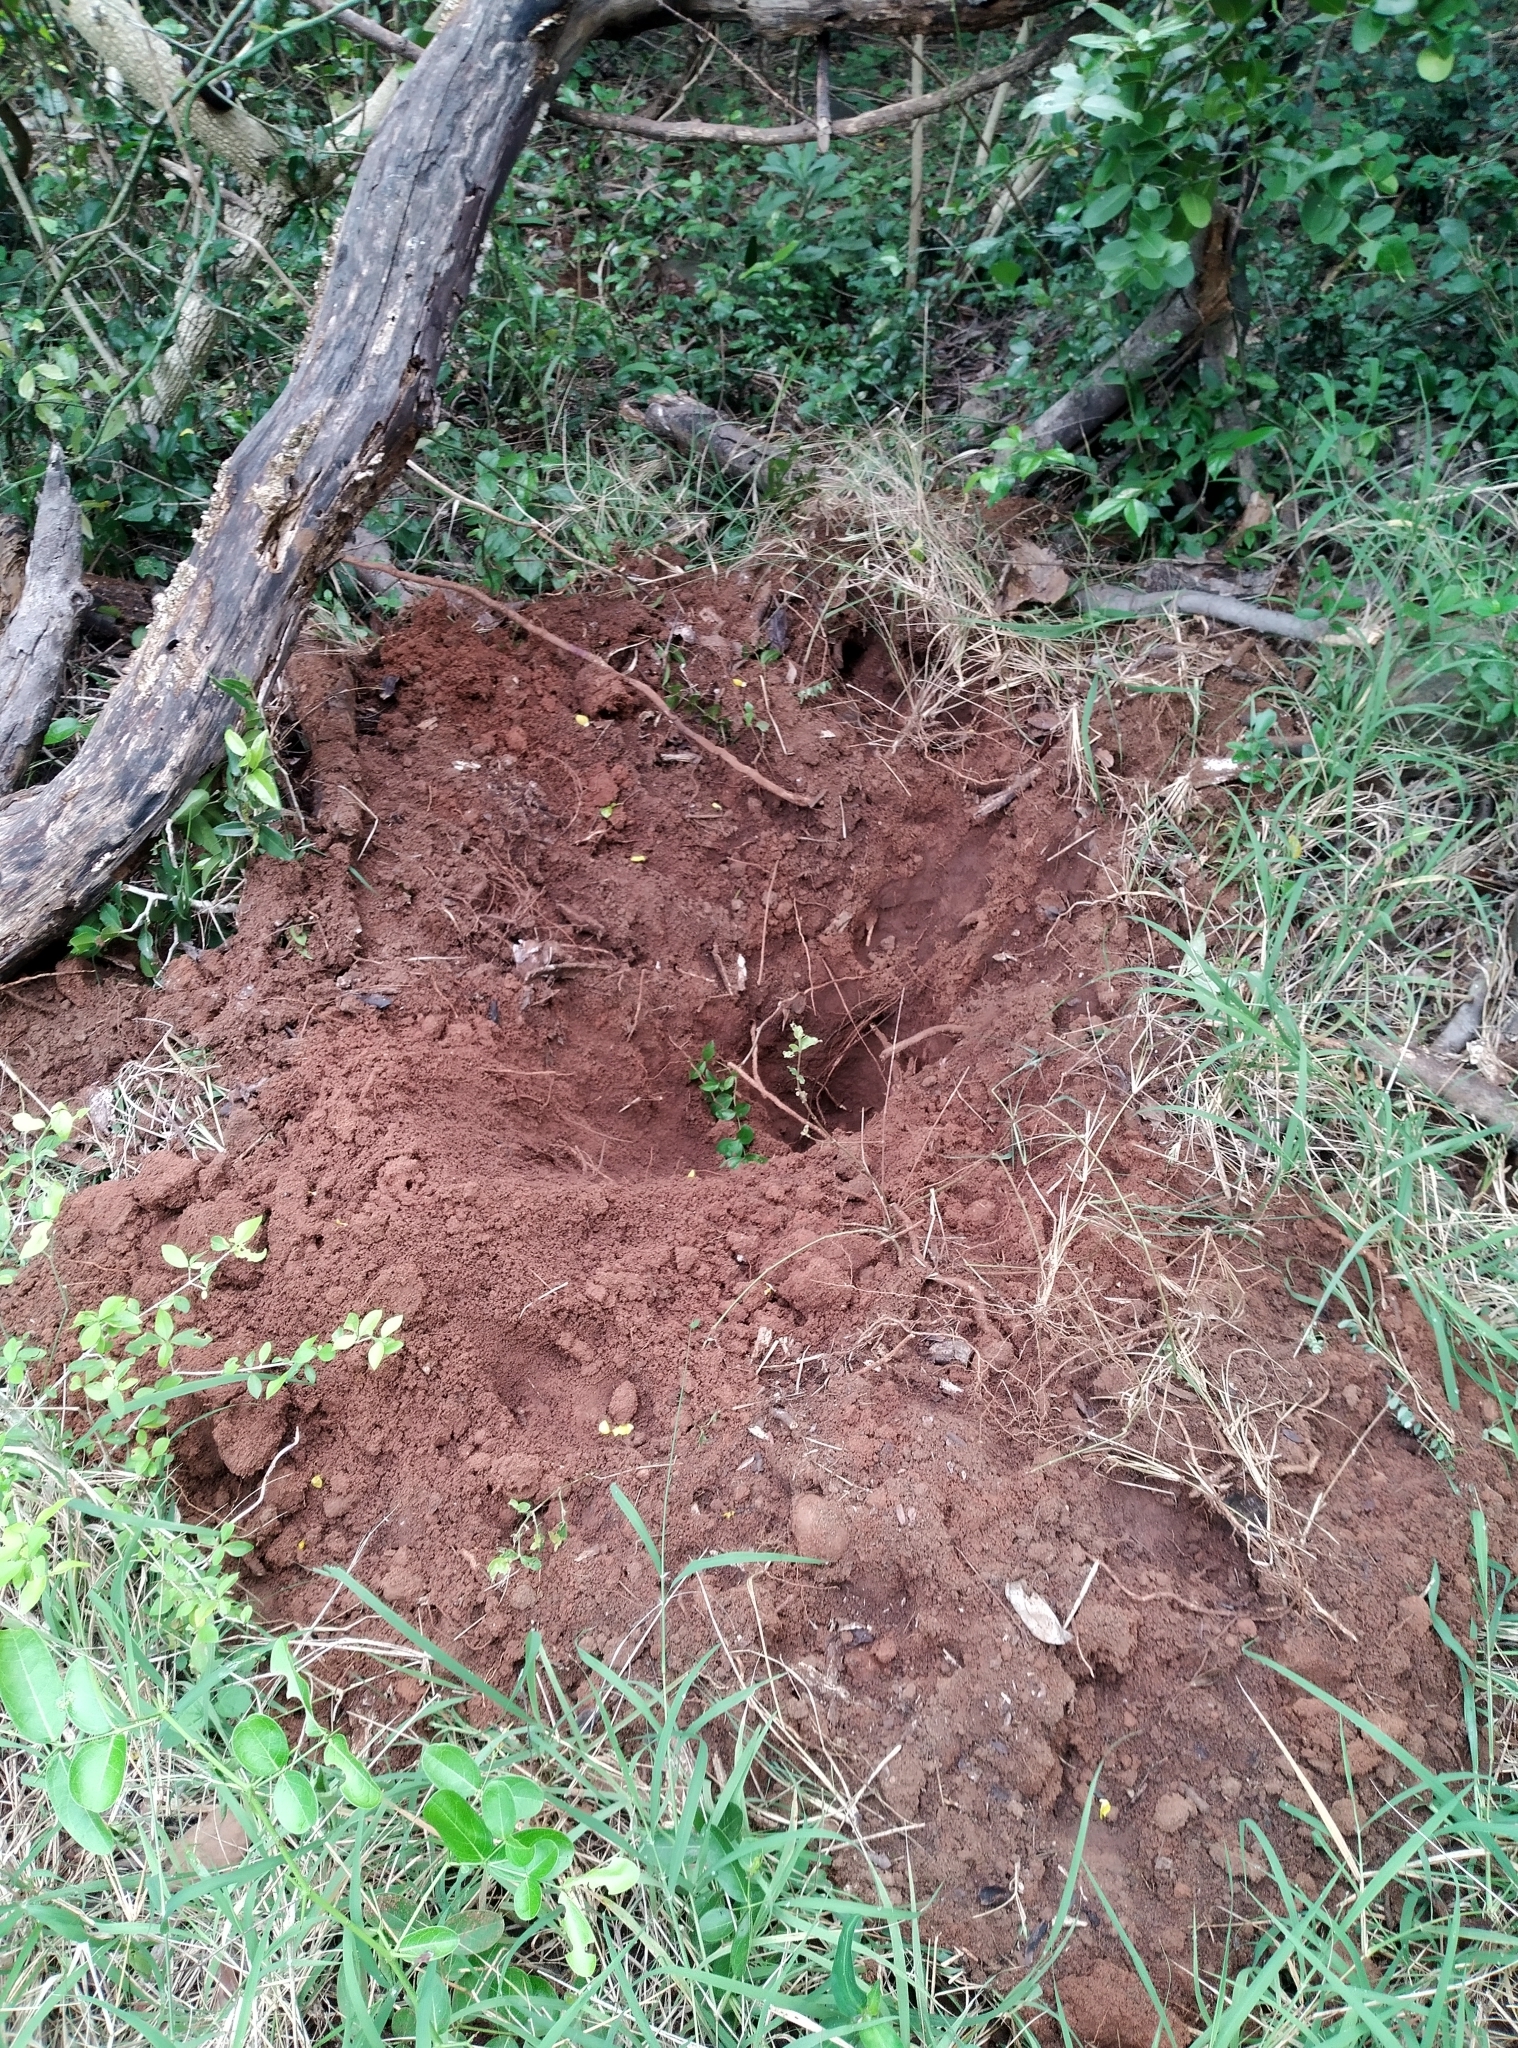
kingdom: Animalia
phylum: Chordata
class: Mammalia
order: Carnivora
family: Ursidae
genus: Melursus
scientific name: Melursus ursinus
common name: Sloth bear
